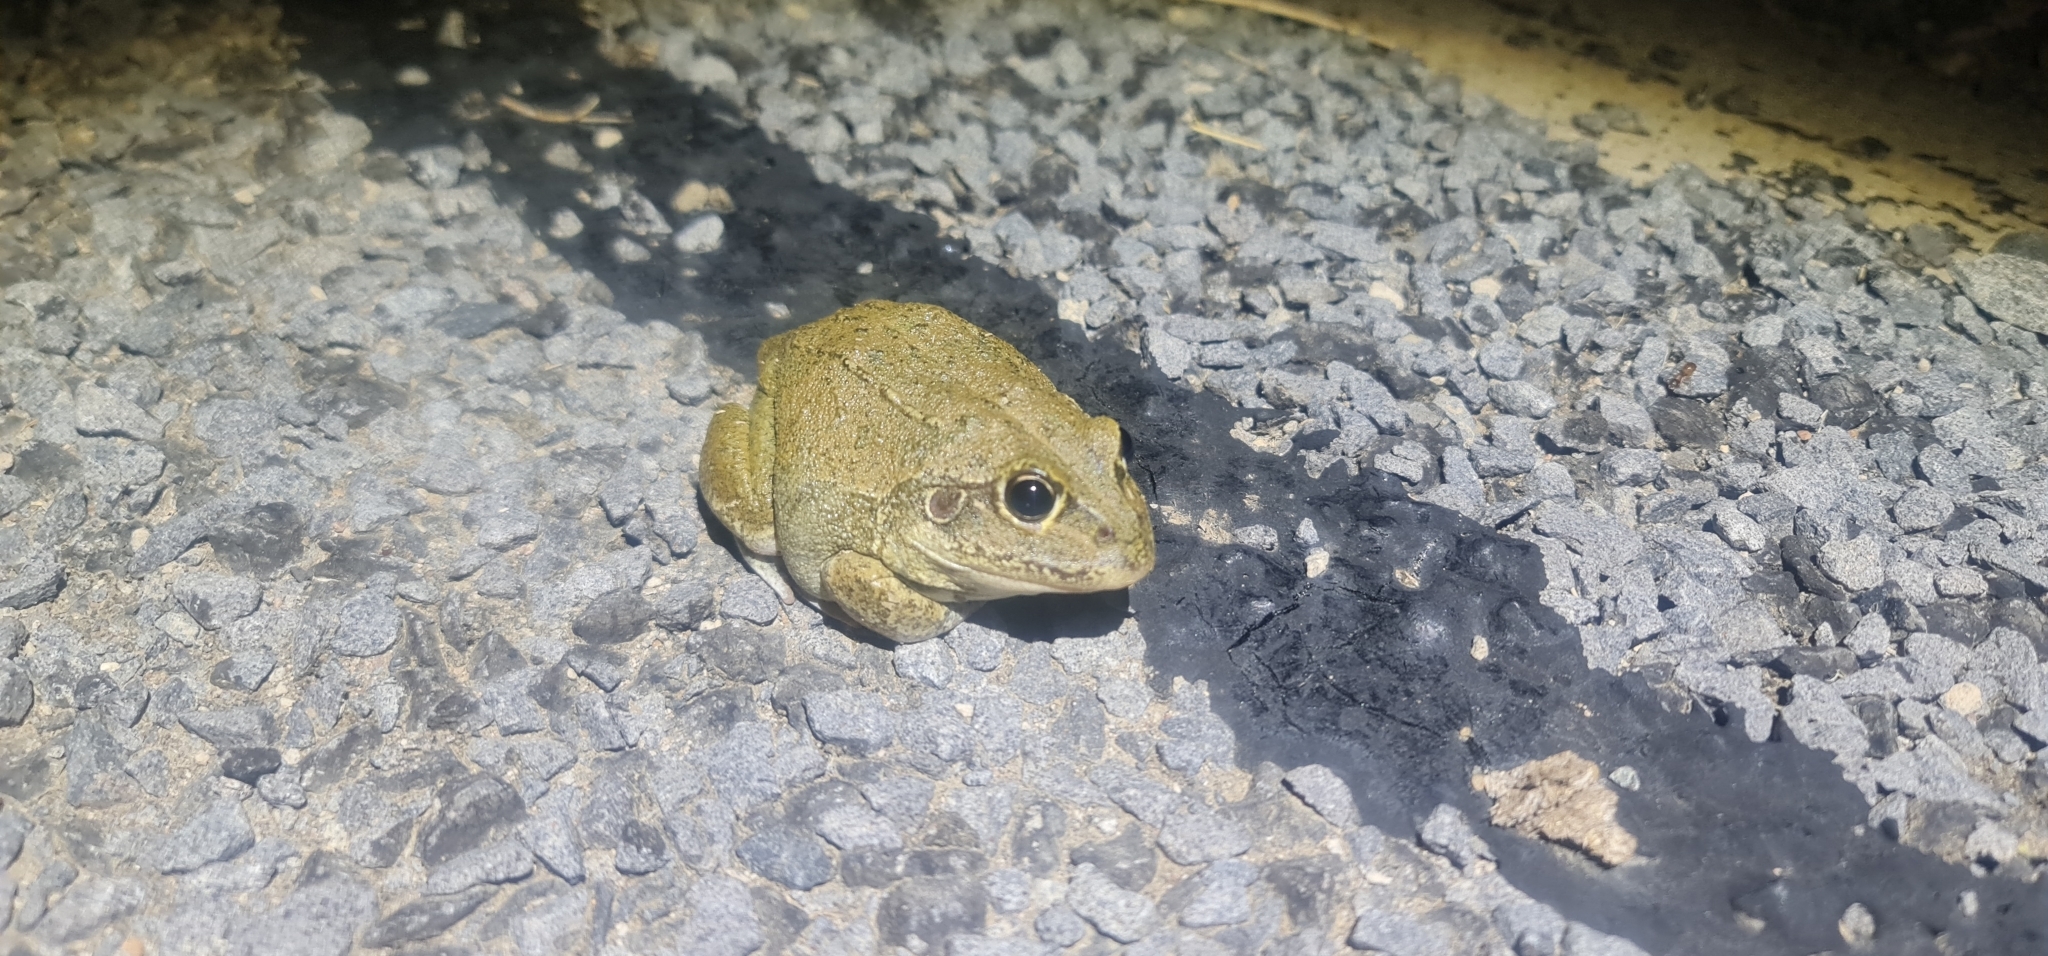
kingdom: Animalia
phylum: Chordata
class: Amphibia
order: Anura
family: Pelodryadidae
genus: Ranoidea
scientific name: Ranoidea australis
